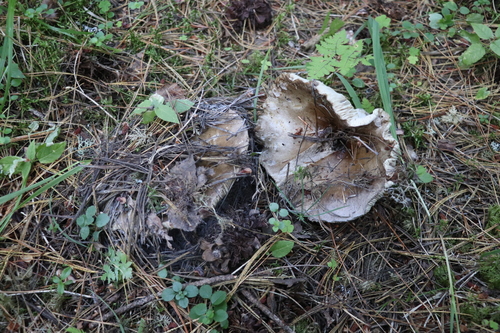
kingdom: Fungi
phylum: Basidiomycota
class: Agaricomycetes
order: Russulales
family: Russulaceae
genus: Russula
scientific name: Russula adusta
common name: Winecork brittlegill
